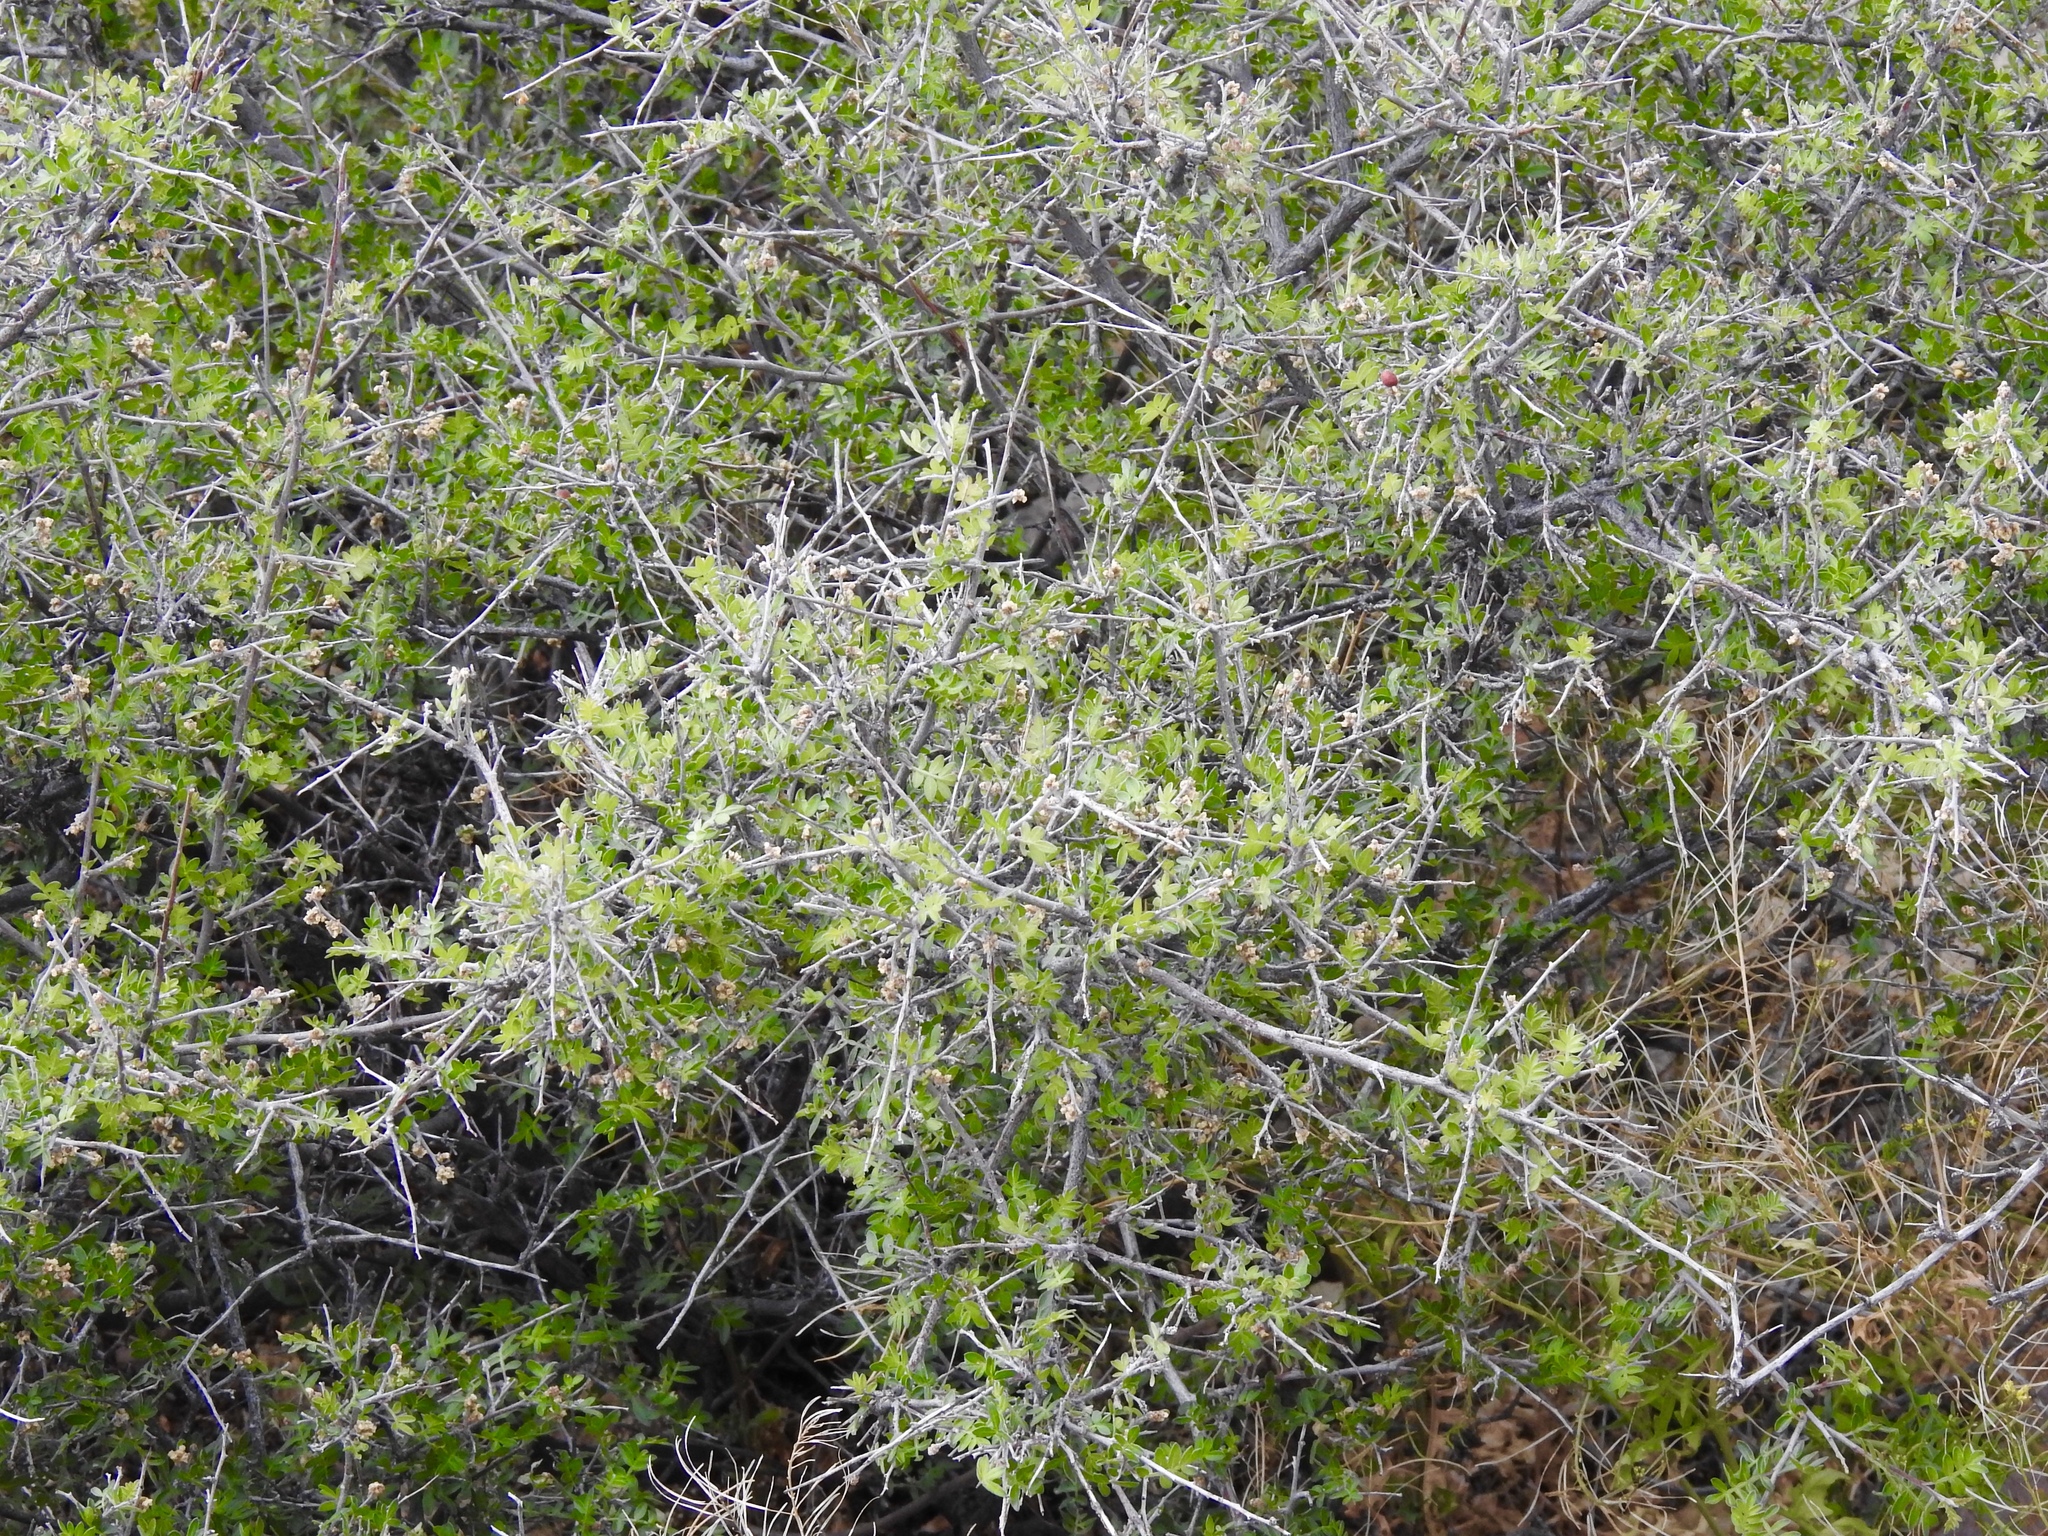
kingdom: Plantae
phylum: Tracheophyta
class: Magnoliopsida
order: Sapindales
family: Anacardiaceae
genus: Rhus
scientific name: Rhus microphylla
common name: Desert sumac
